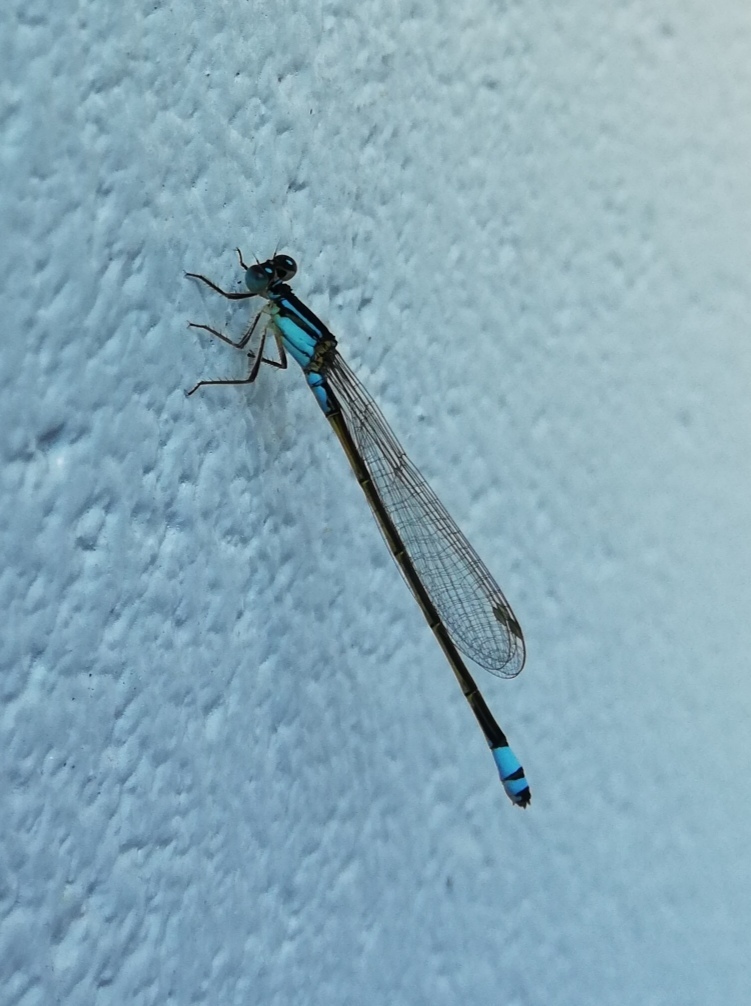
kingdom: Animalia
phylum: Arthropoda
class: Insecta
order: Odonata
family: Coenagrionidae
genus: Ischnura
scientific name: Ischnura heterosticta
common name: Common bluetail
